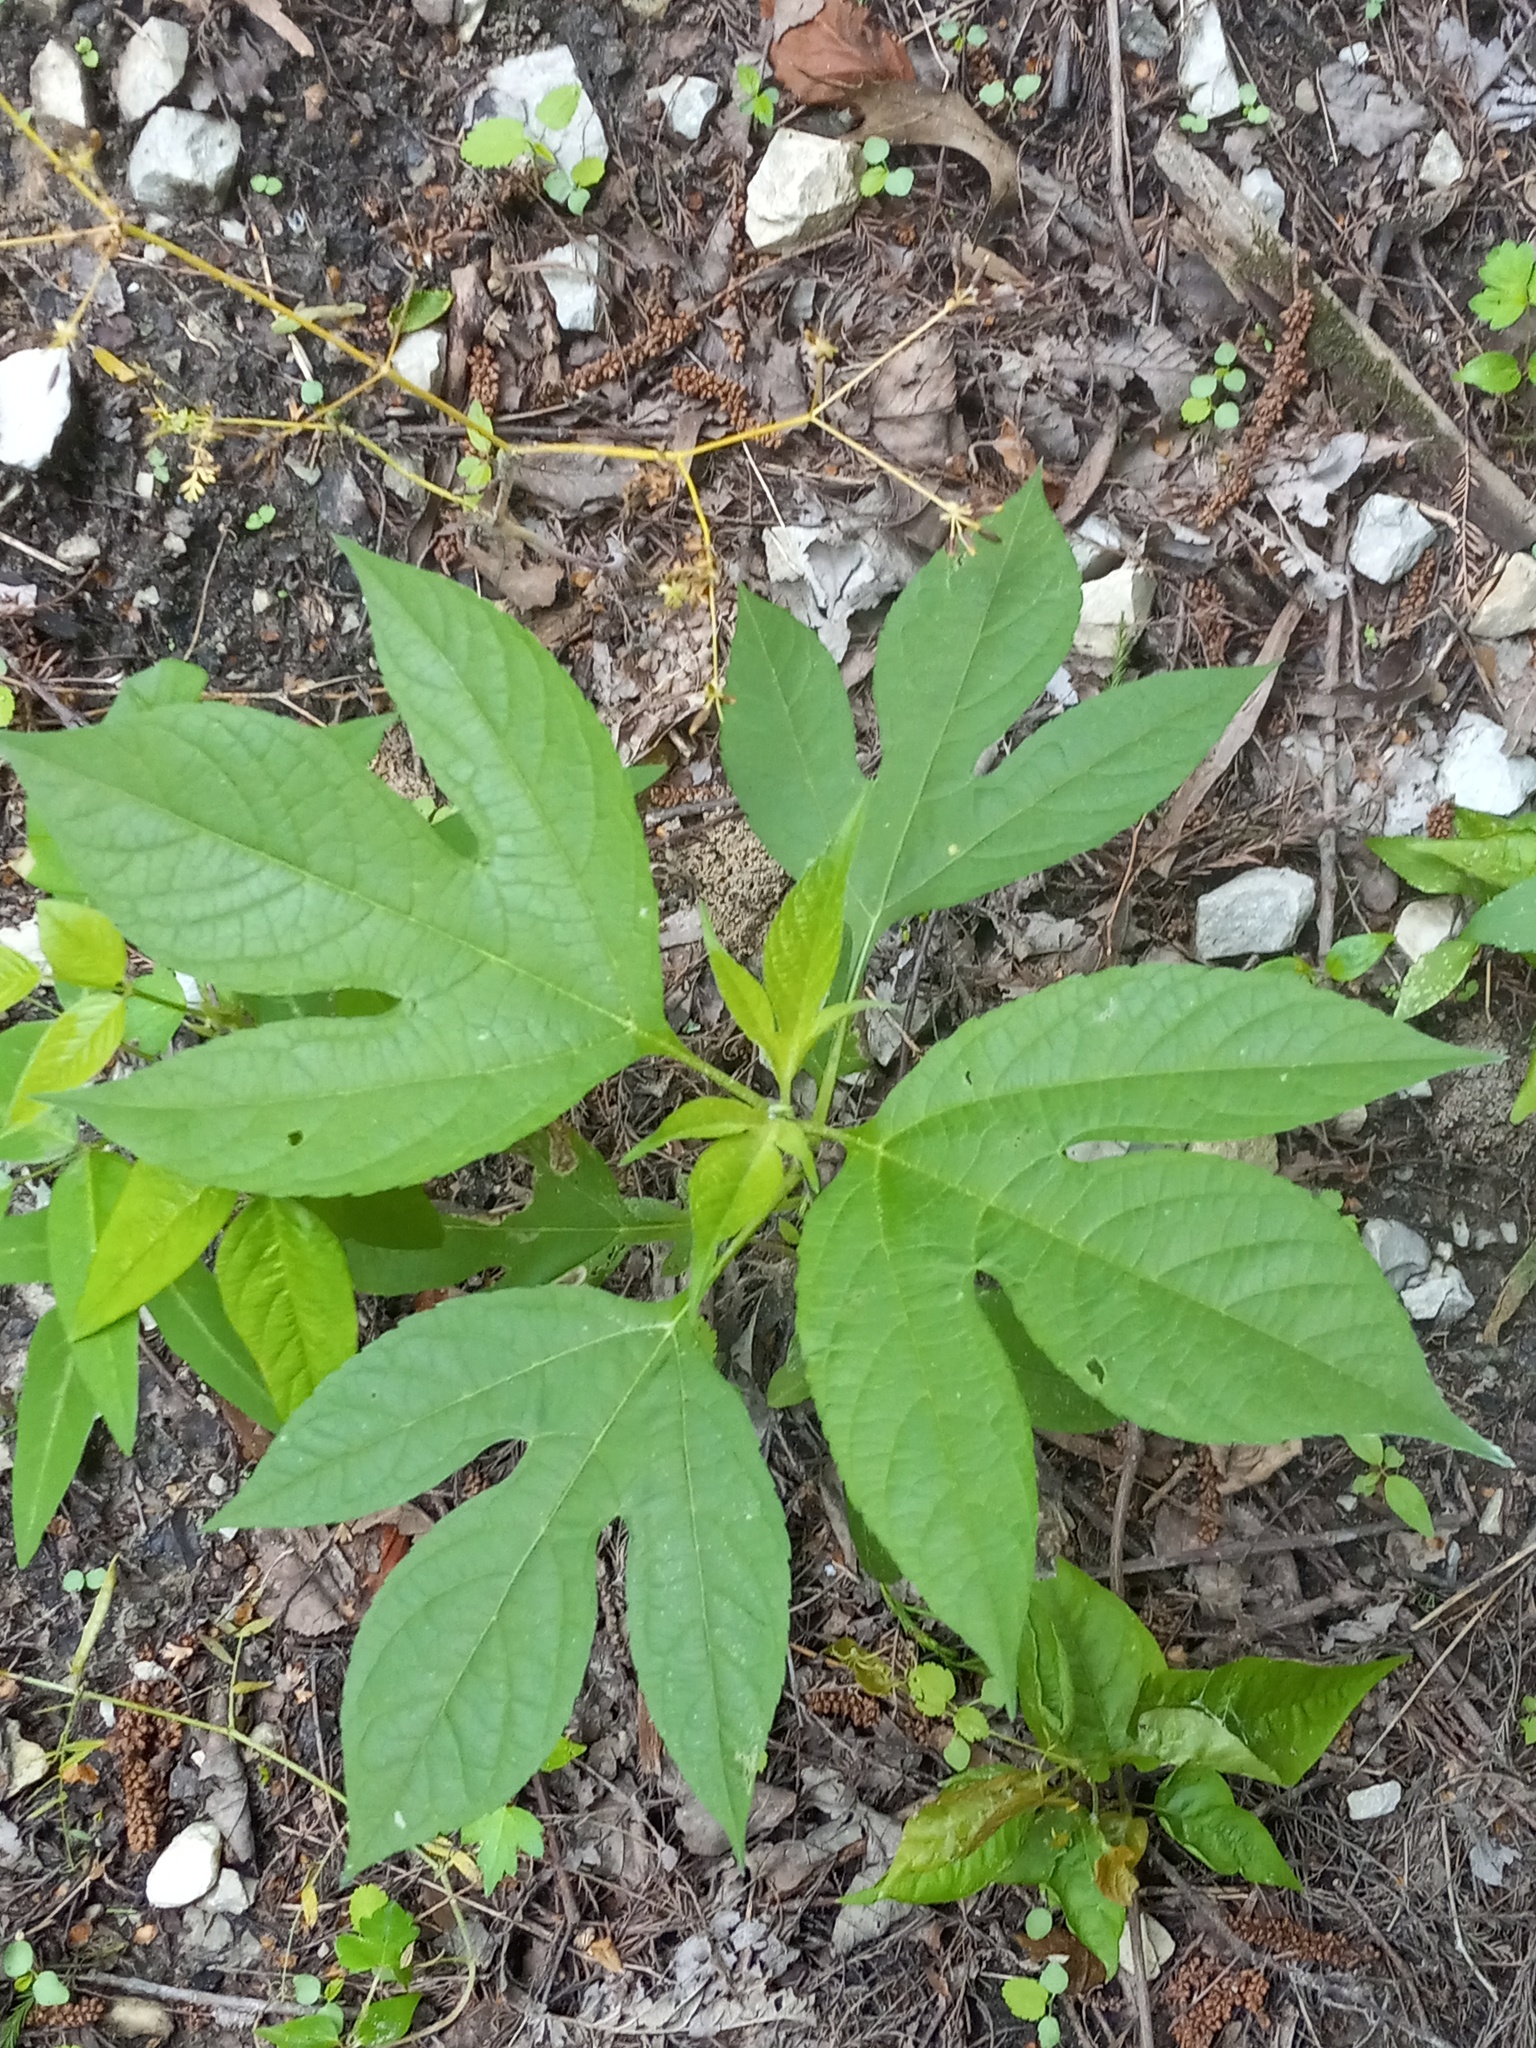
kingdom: Plantae
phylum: Tracheophyta
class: Magnoliopsida
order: Asterales
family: Asteraceae
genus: Ambrosia
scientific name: Ambrosia trifida
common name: Giant ragweed
